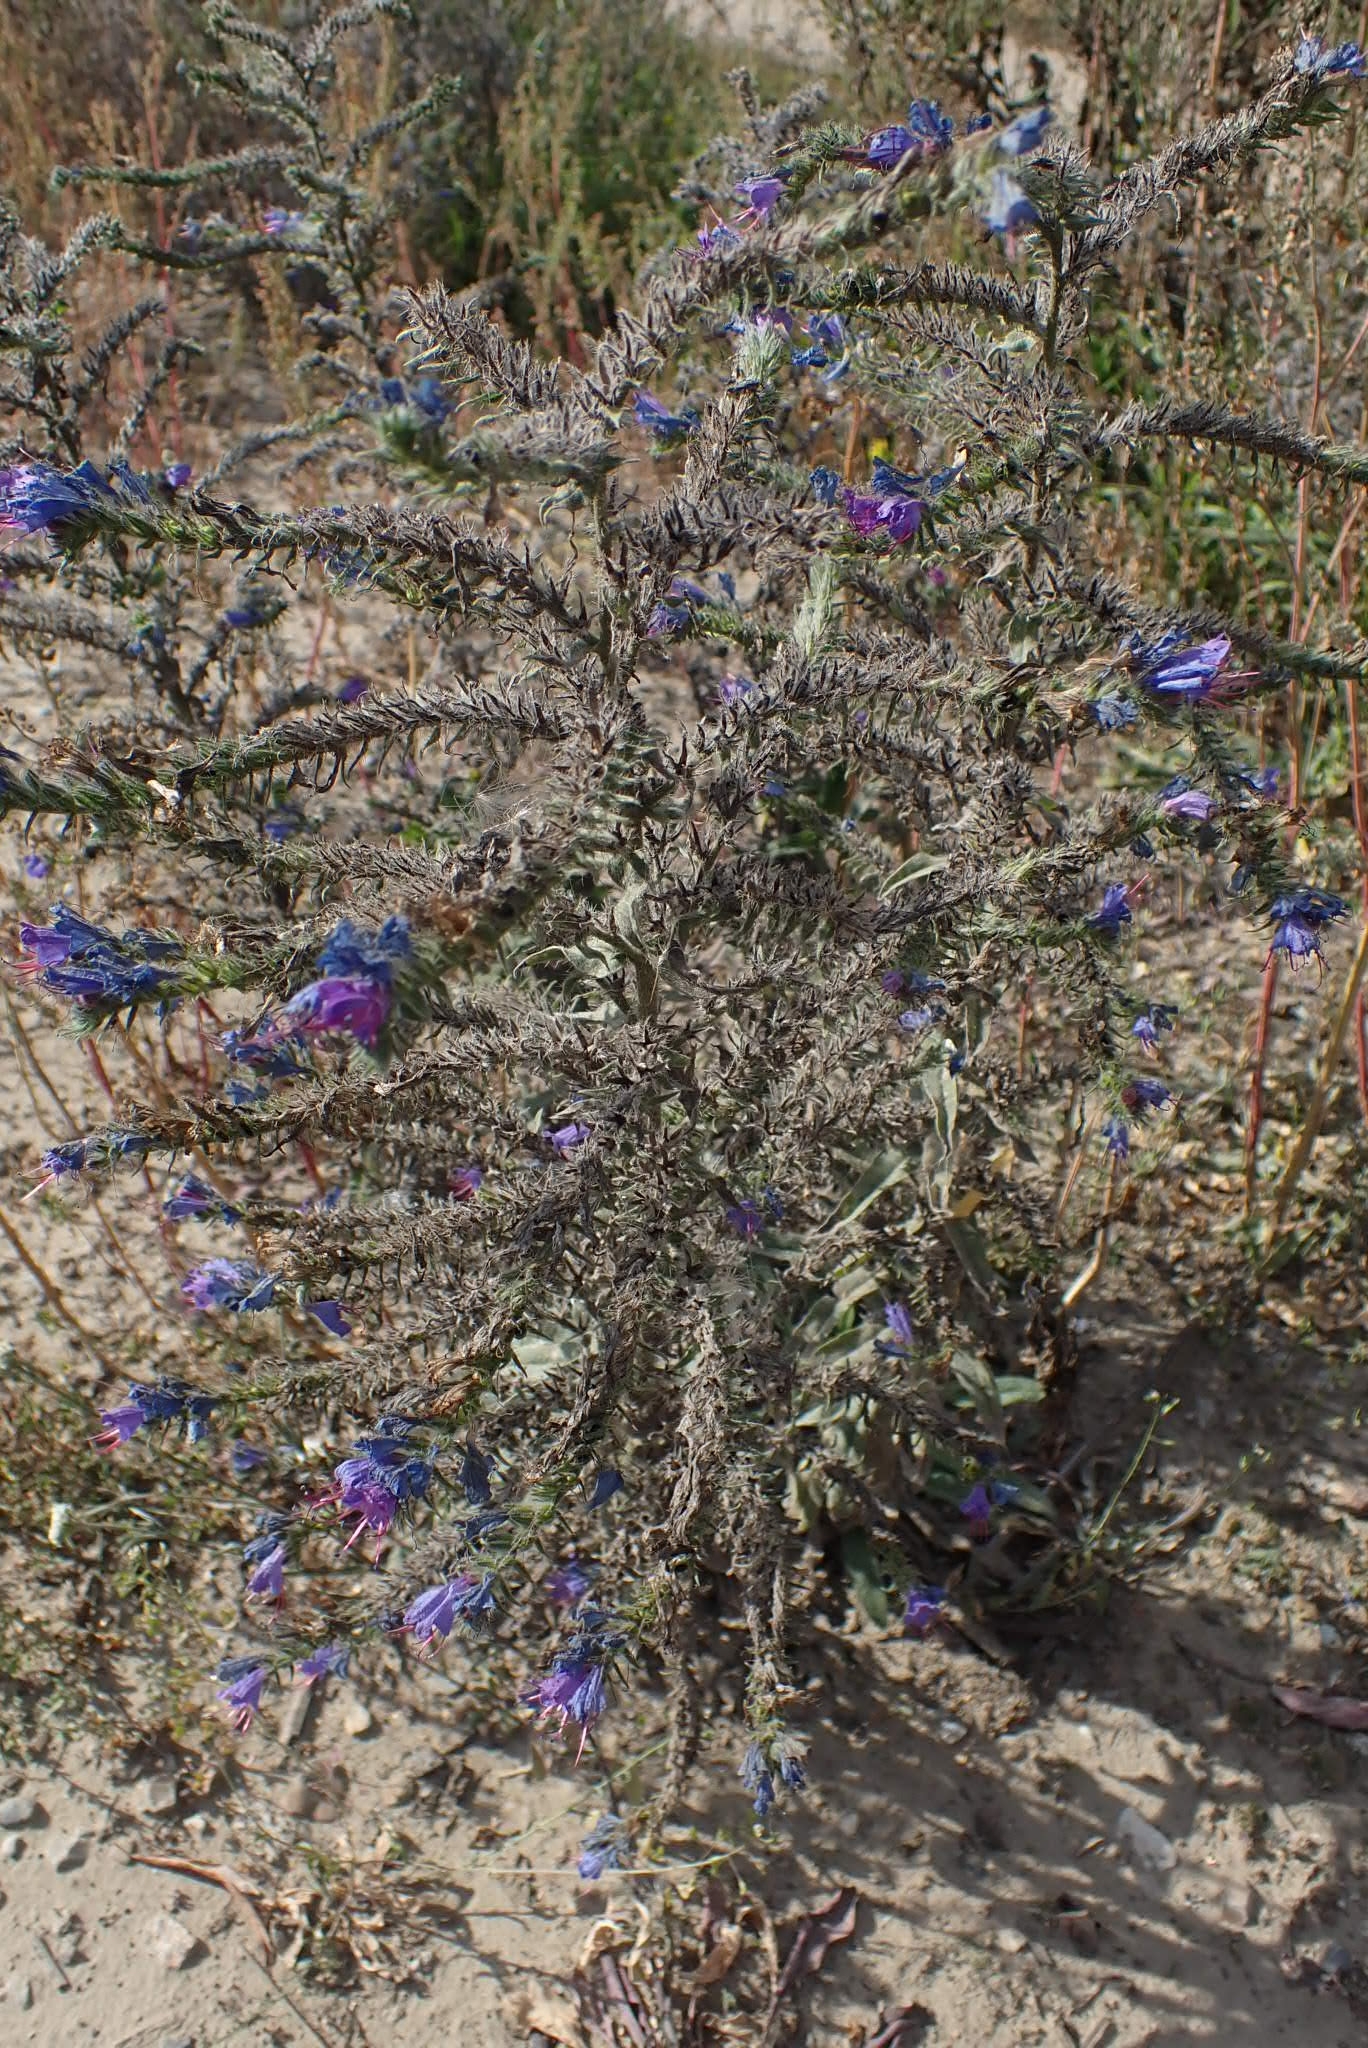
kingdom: Plantae
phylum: Tracheophyta
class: Magnoliopsida
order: Boraginales
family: Boraginaceae
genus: Echium
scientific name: Echium vulgare
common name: Common viper's bugloss
